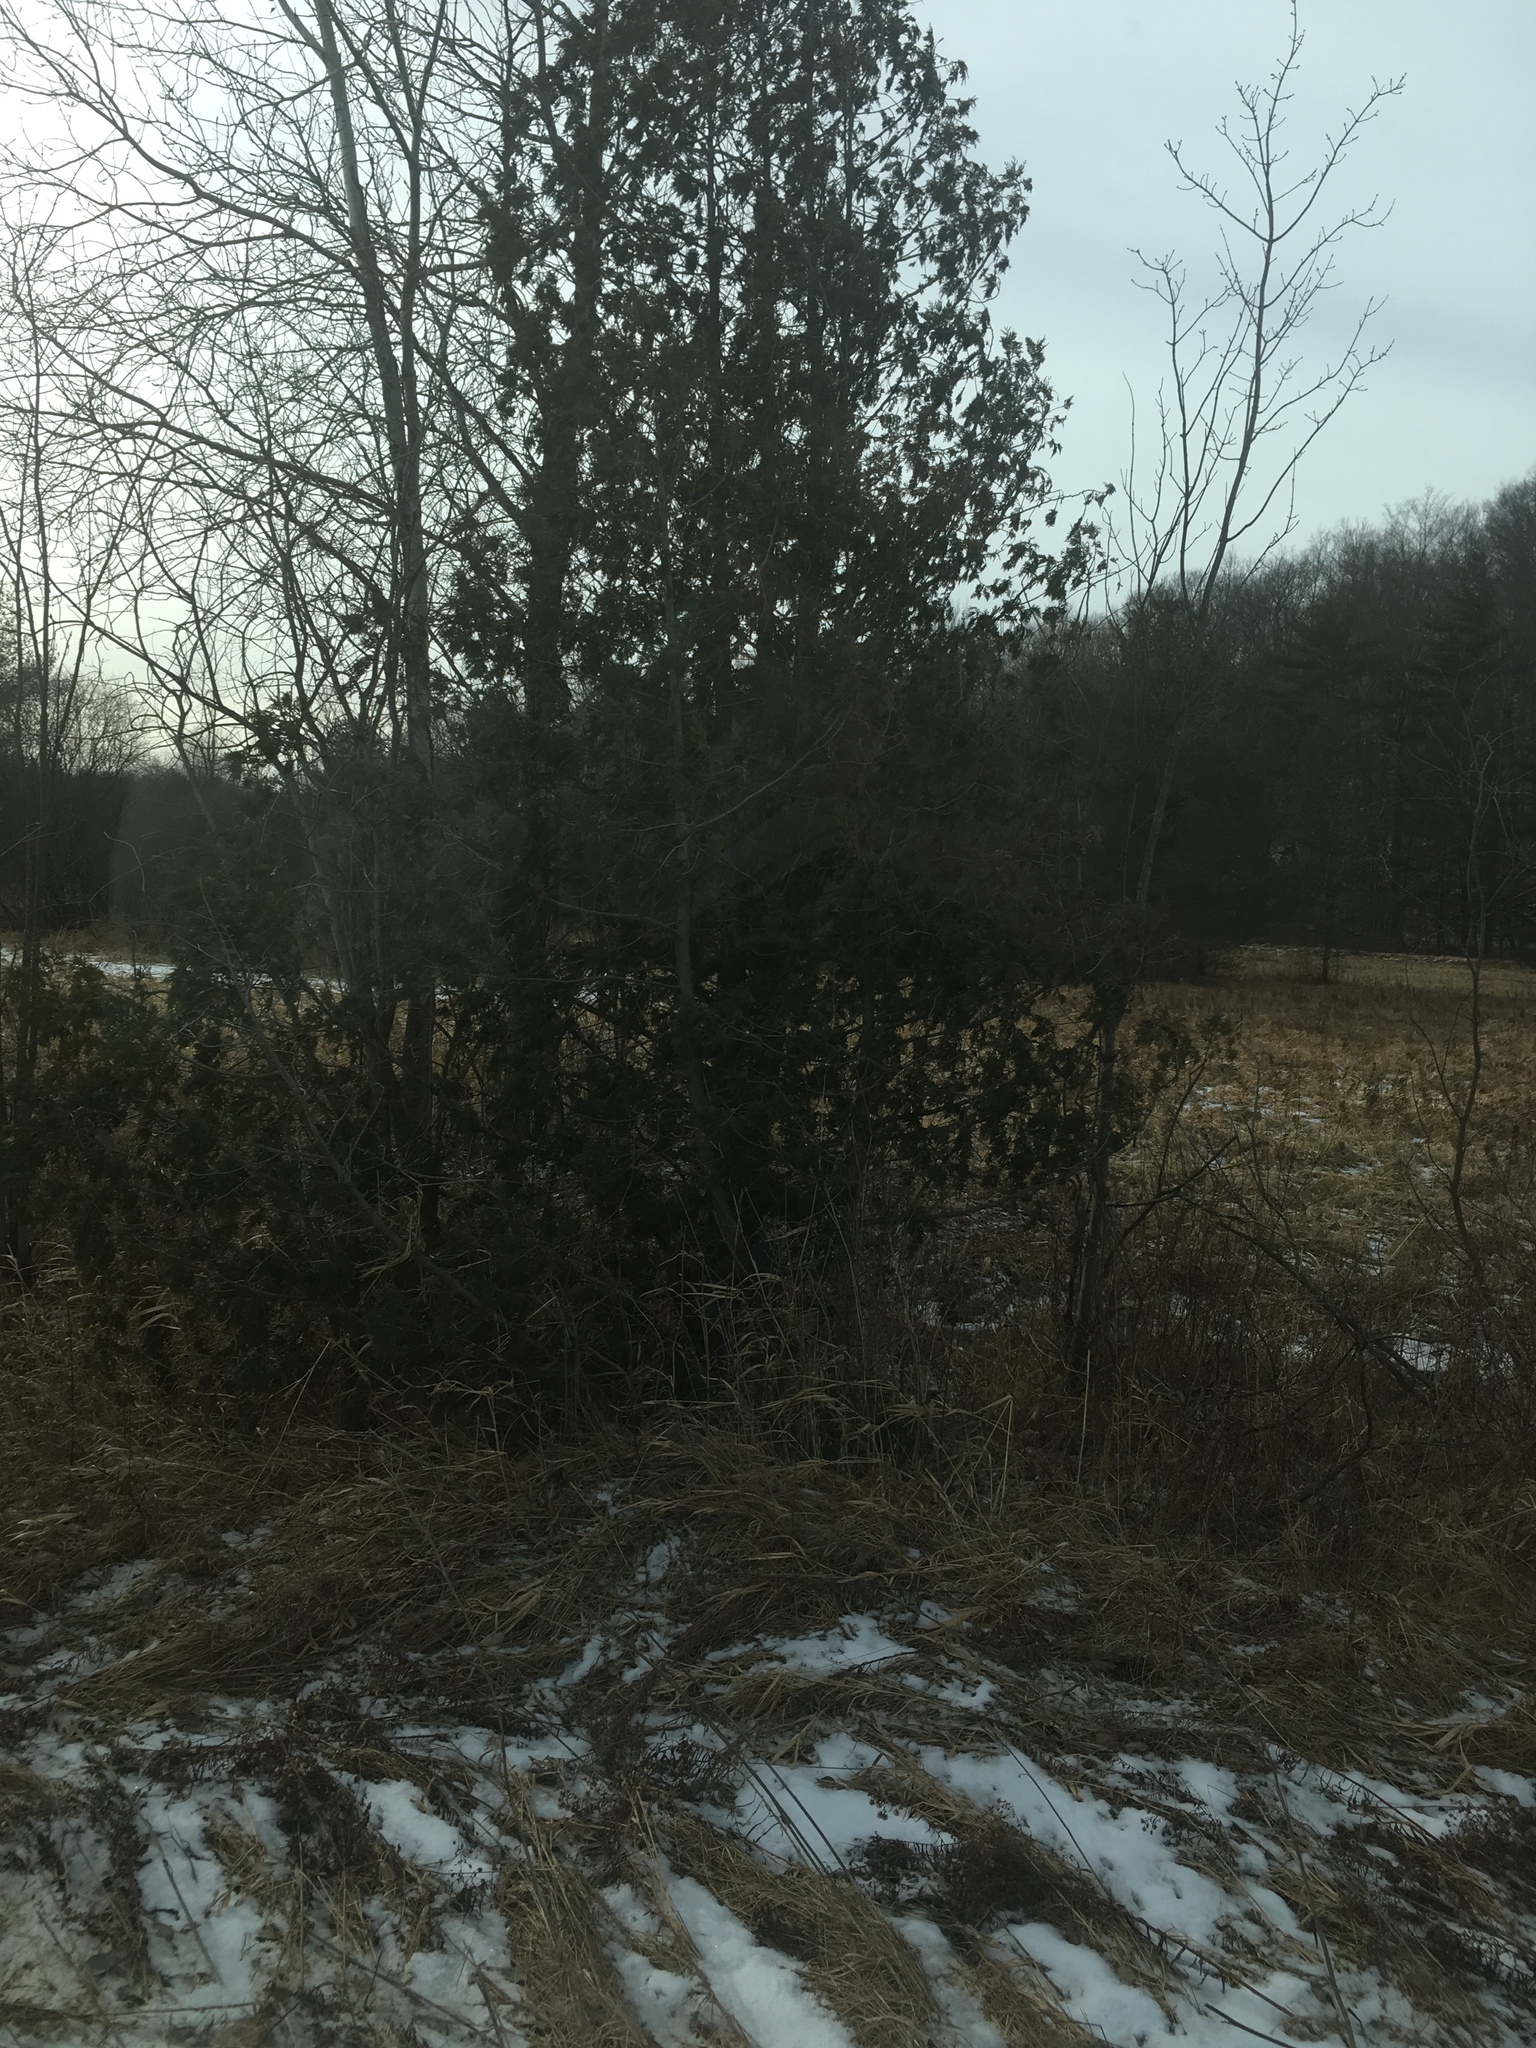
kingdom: Plantae
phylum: Tracheophyta
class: Pinopsida
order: Pinales
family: Cupressaceae
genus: Thuja
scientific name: Thuja occidentalis
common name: Northern white-cedar
